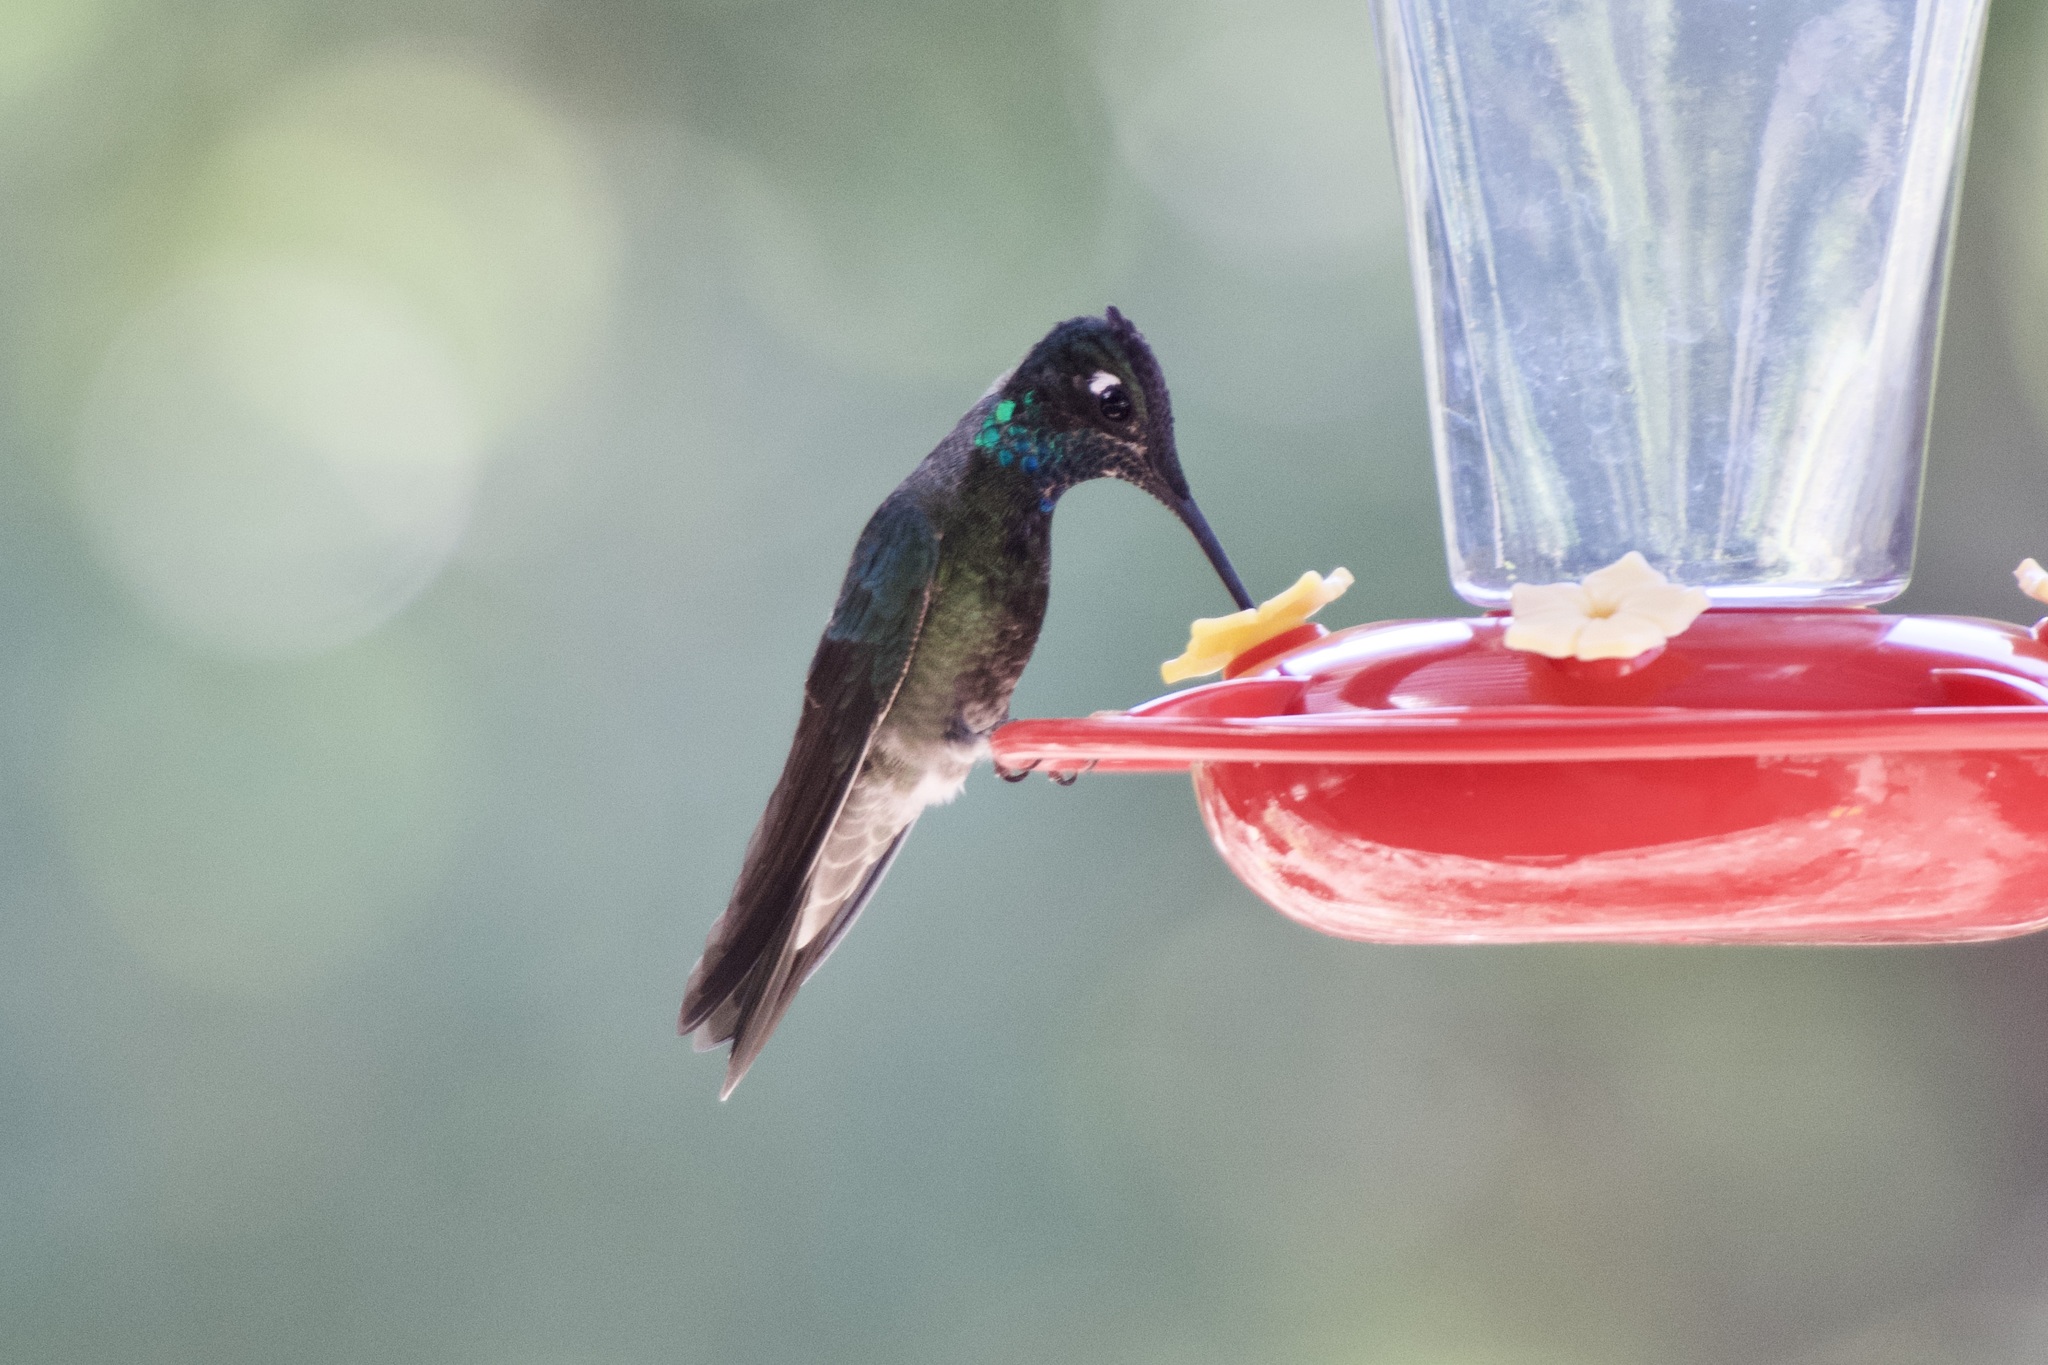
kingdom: Animalia
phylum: Chordata
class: Aves
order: Apodiformes
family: Trochilidae
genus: Eugenes
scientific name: Eugenes fulgens
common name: Magnificent hummingbird
